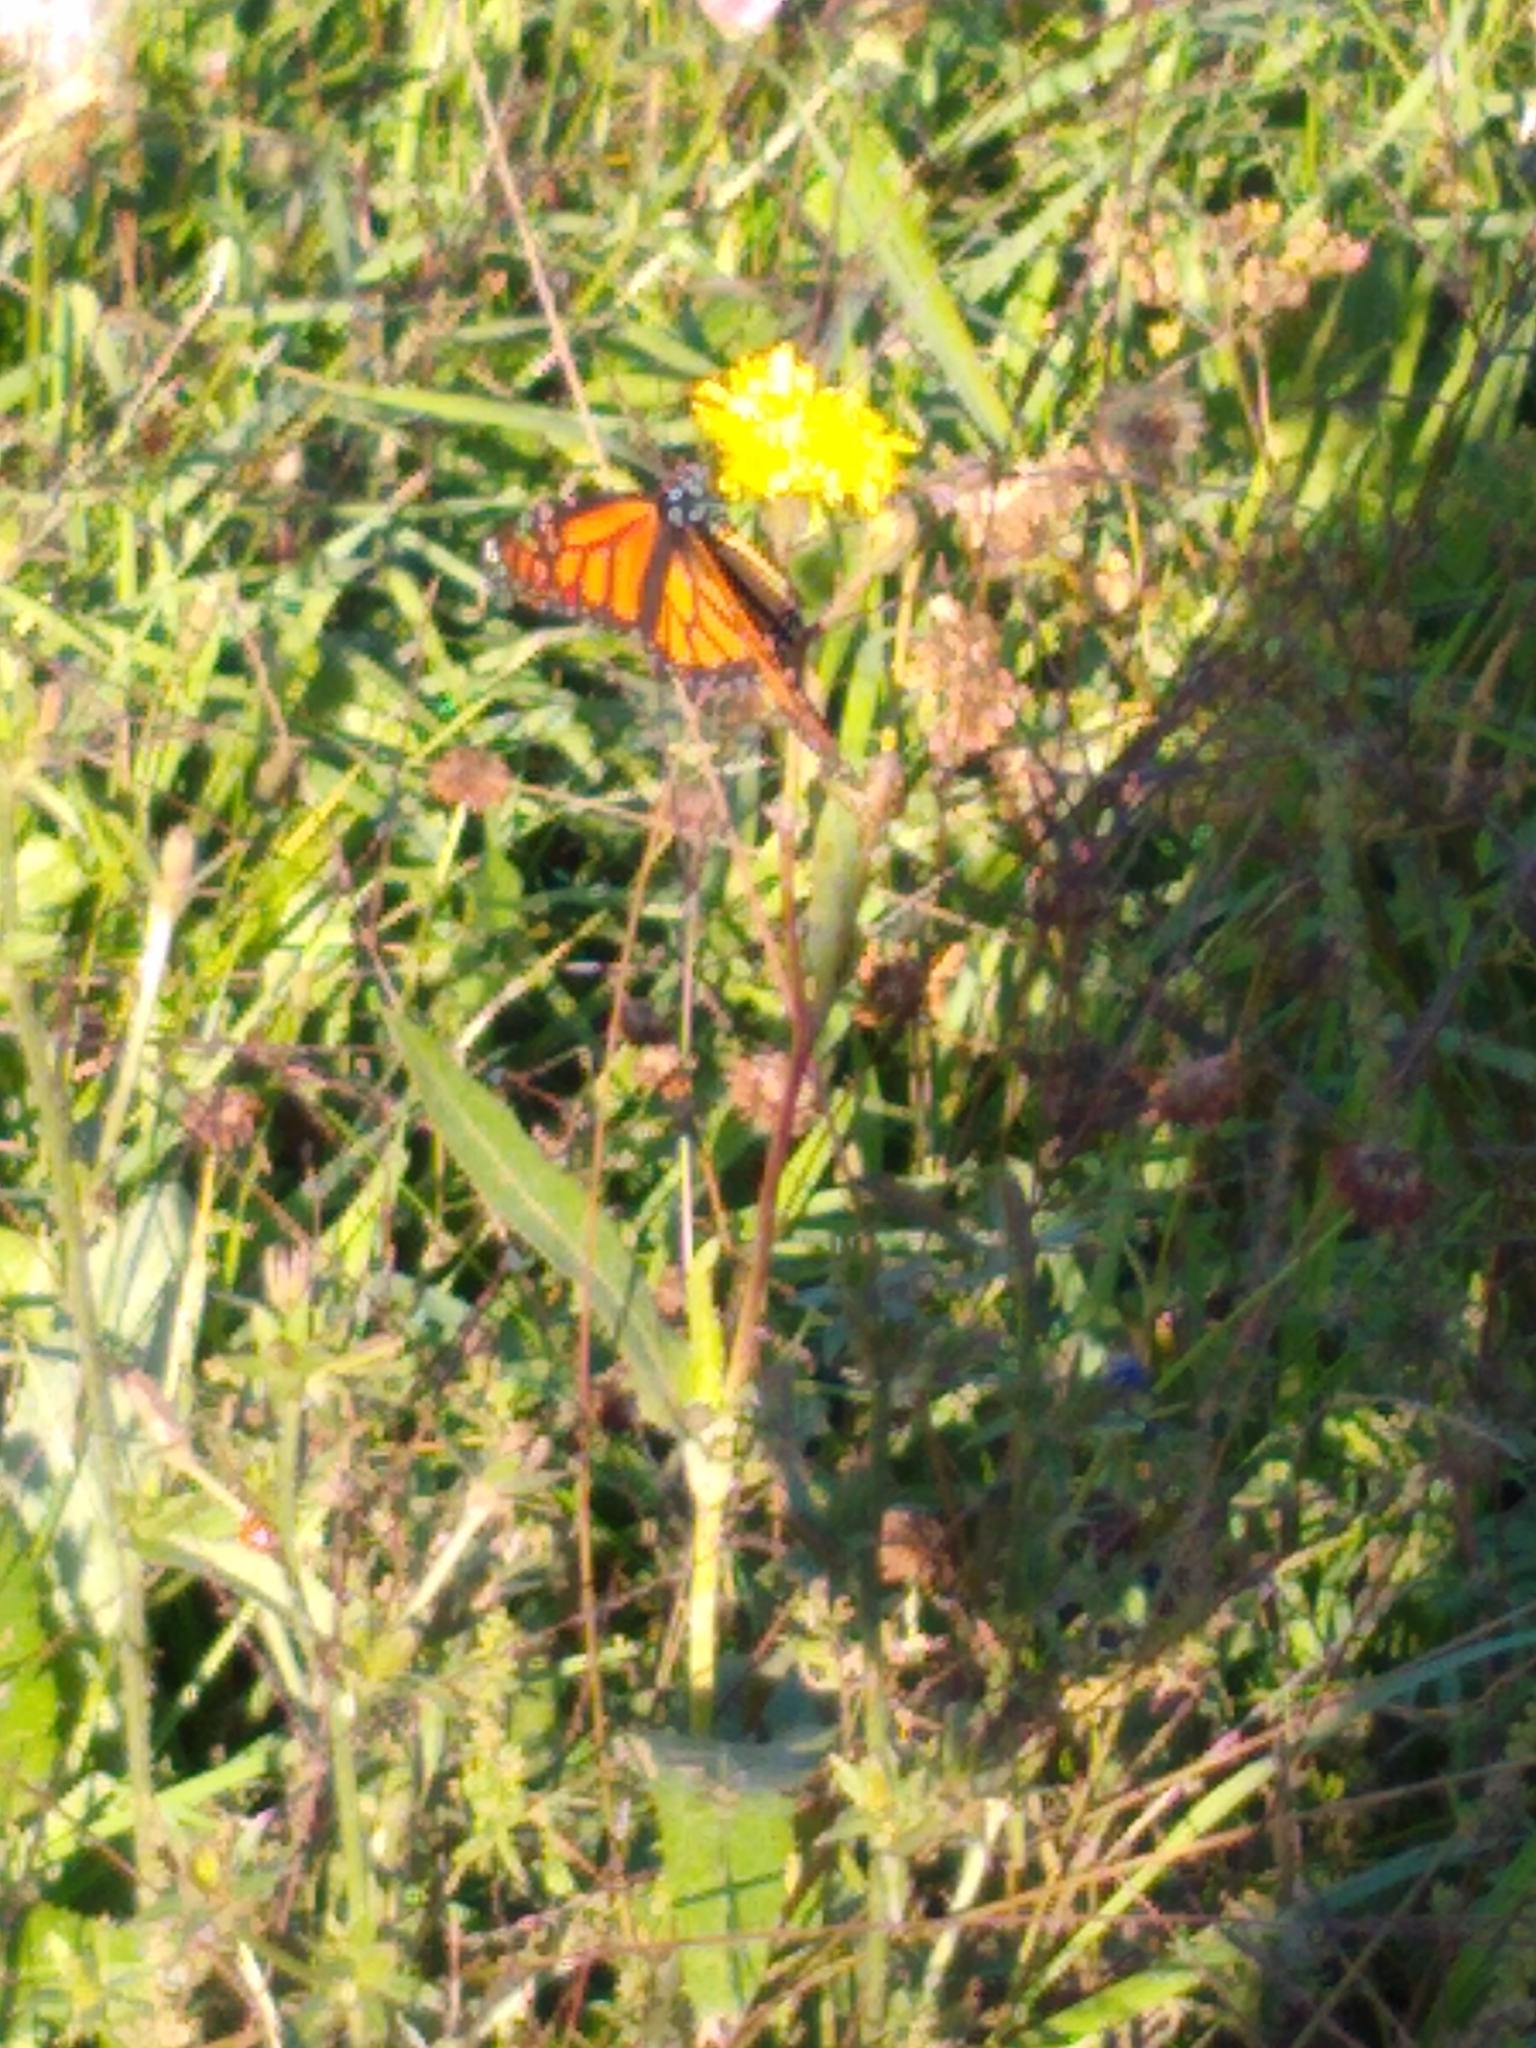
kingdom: Animalia
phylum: Arthropoda
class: Insecta
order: Lepidoptera
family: Nymphalidae
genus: Danaus
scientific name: Danaus plexippus
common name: Monarch
